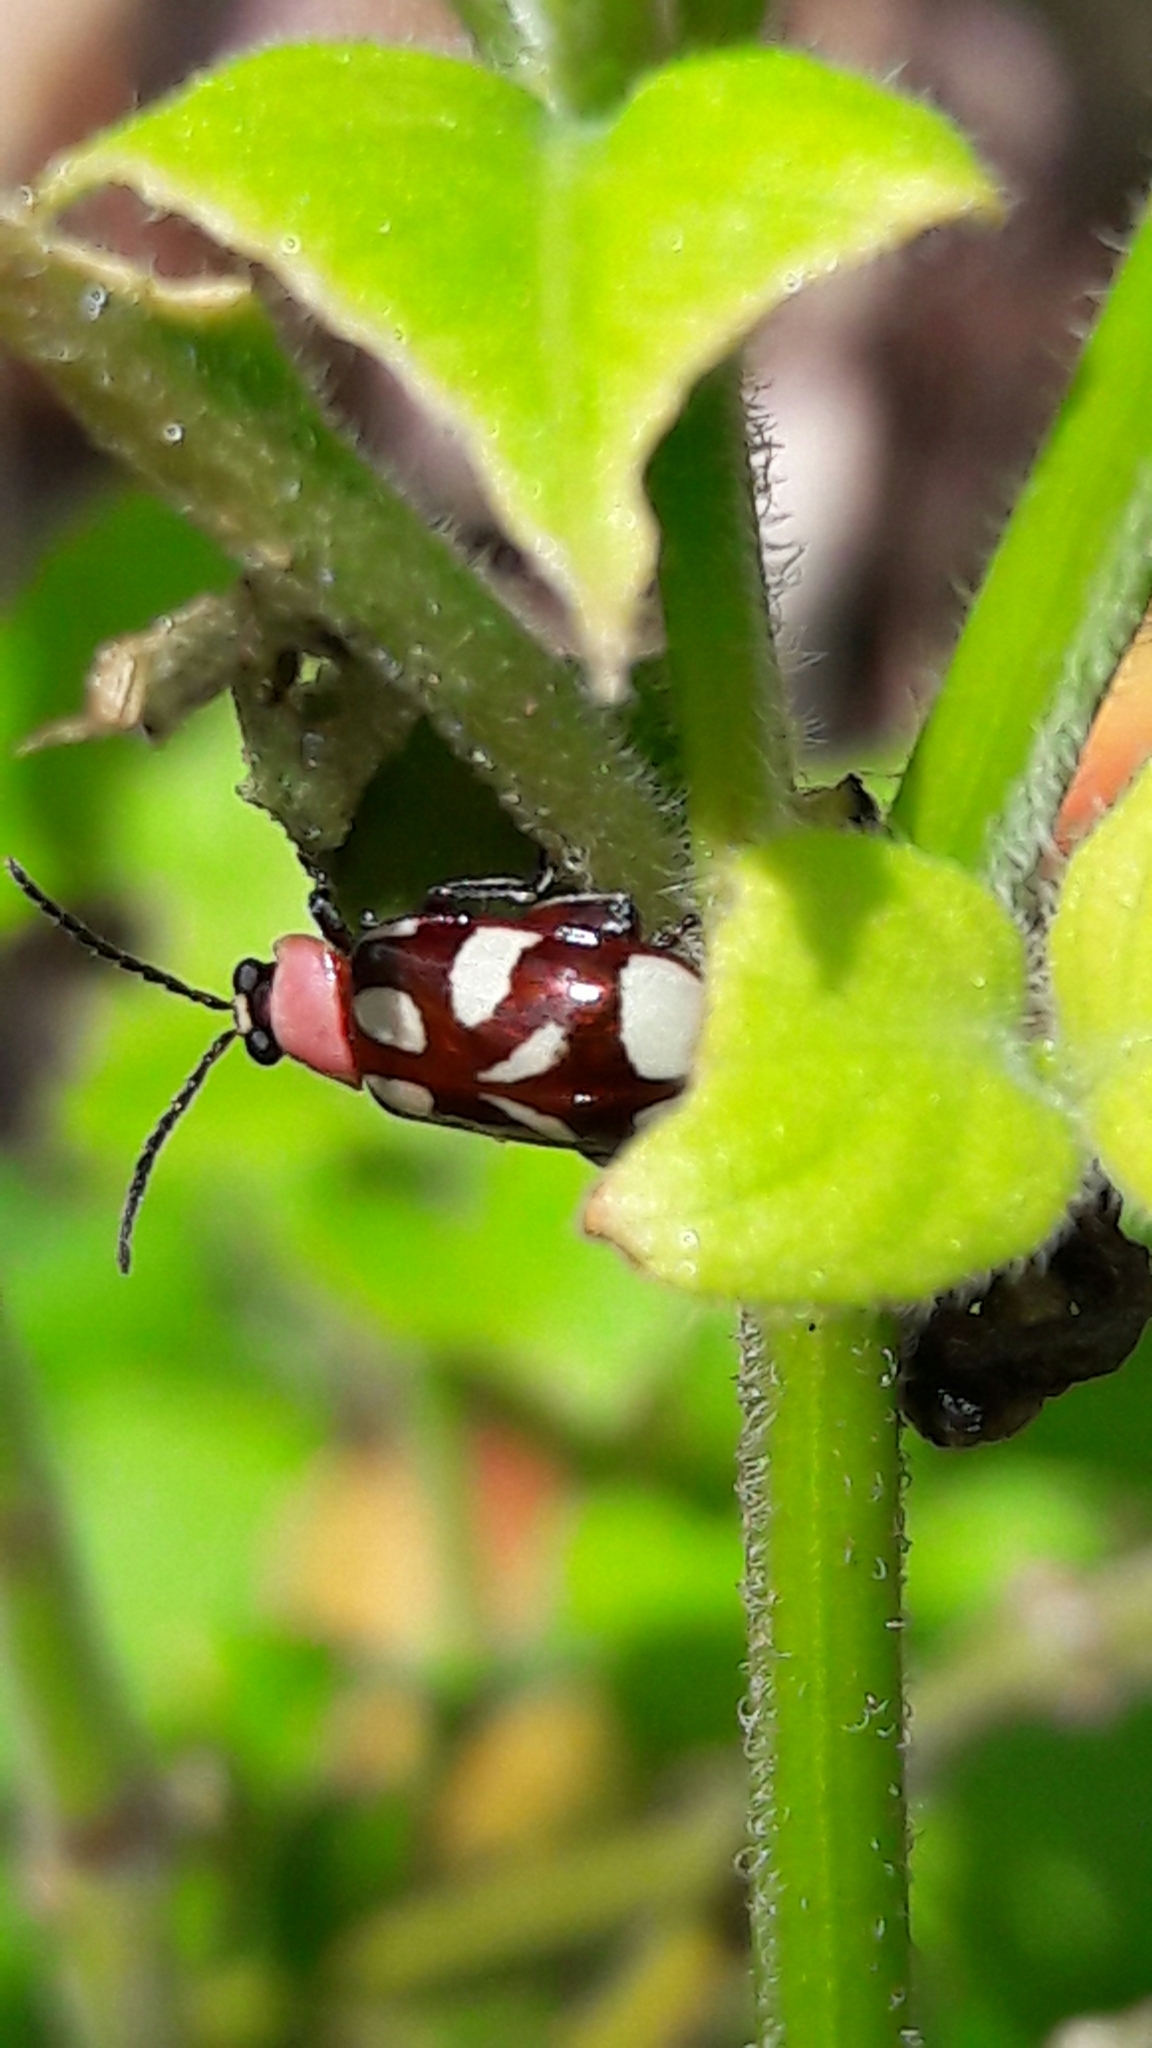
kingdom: Animalia
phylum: Arthropoda
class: Insecta
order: Coleoptera
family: Chrysomelidae
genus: Omophoita
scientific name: Omophoita albicollis
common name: Toensmeier's flea beetle
